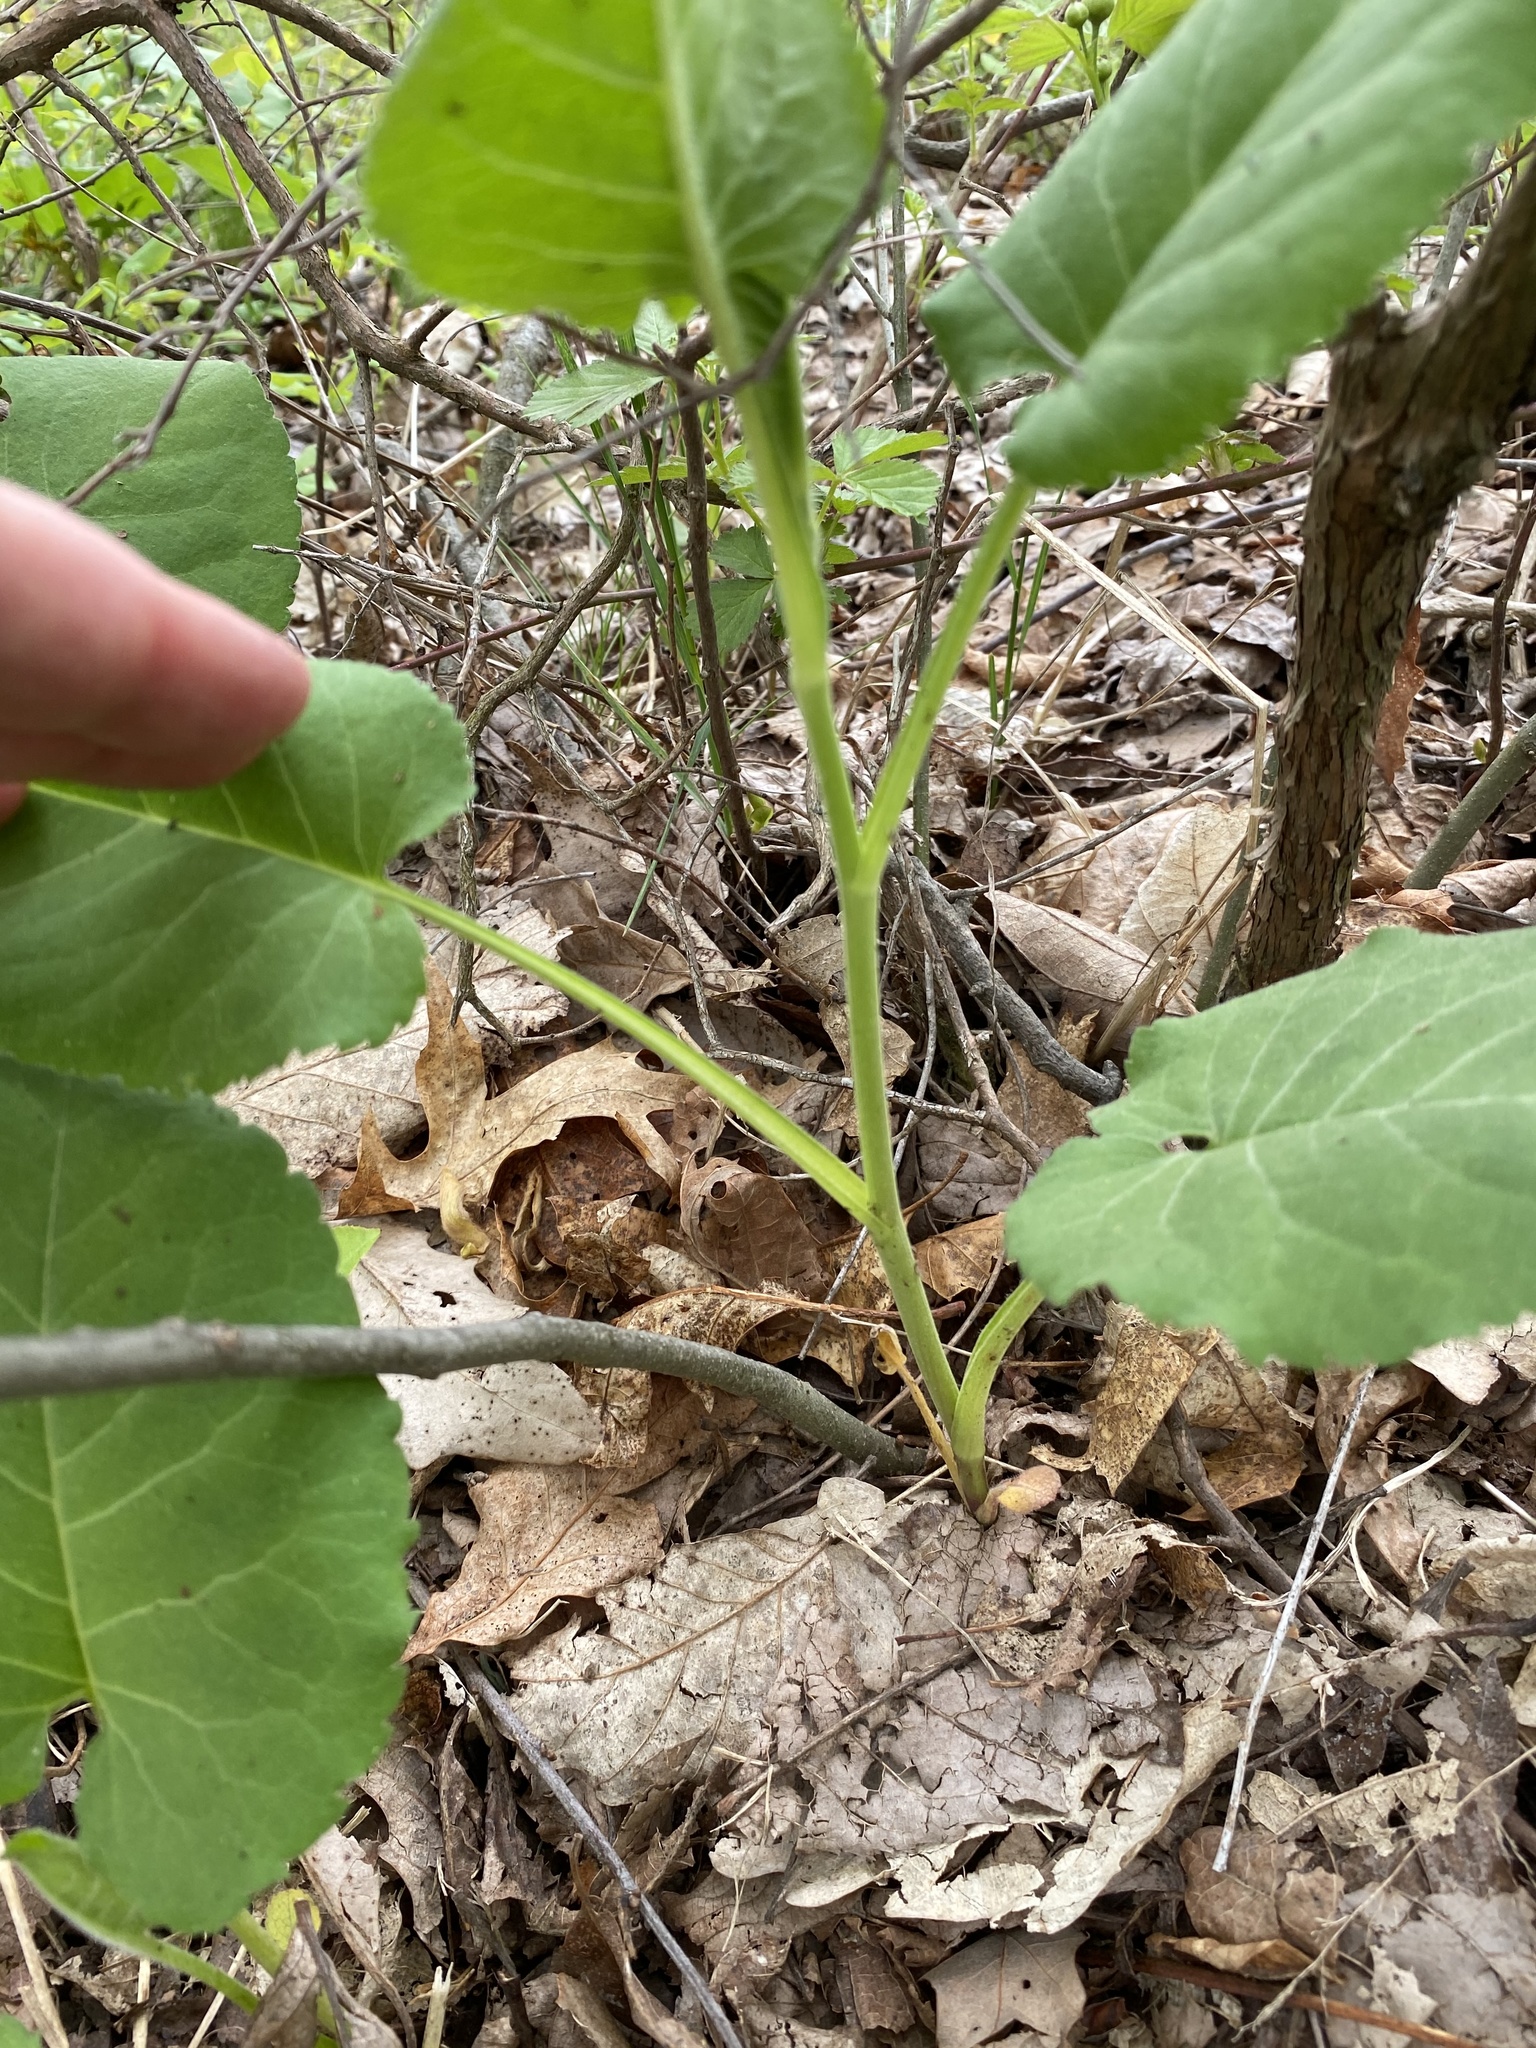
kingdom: Plantae
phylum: Tracheophyta
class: Magnoliopsida
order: Asterales
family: Asteraceae
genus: Eurybia
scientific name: Eurybia macrophylla
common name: Big-leaved aster
